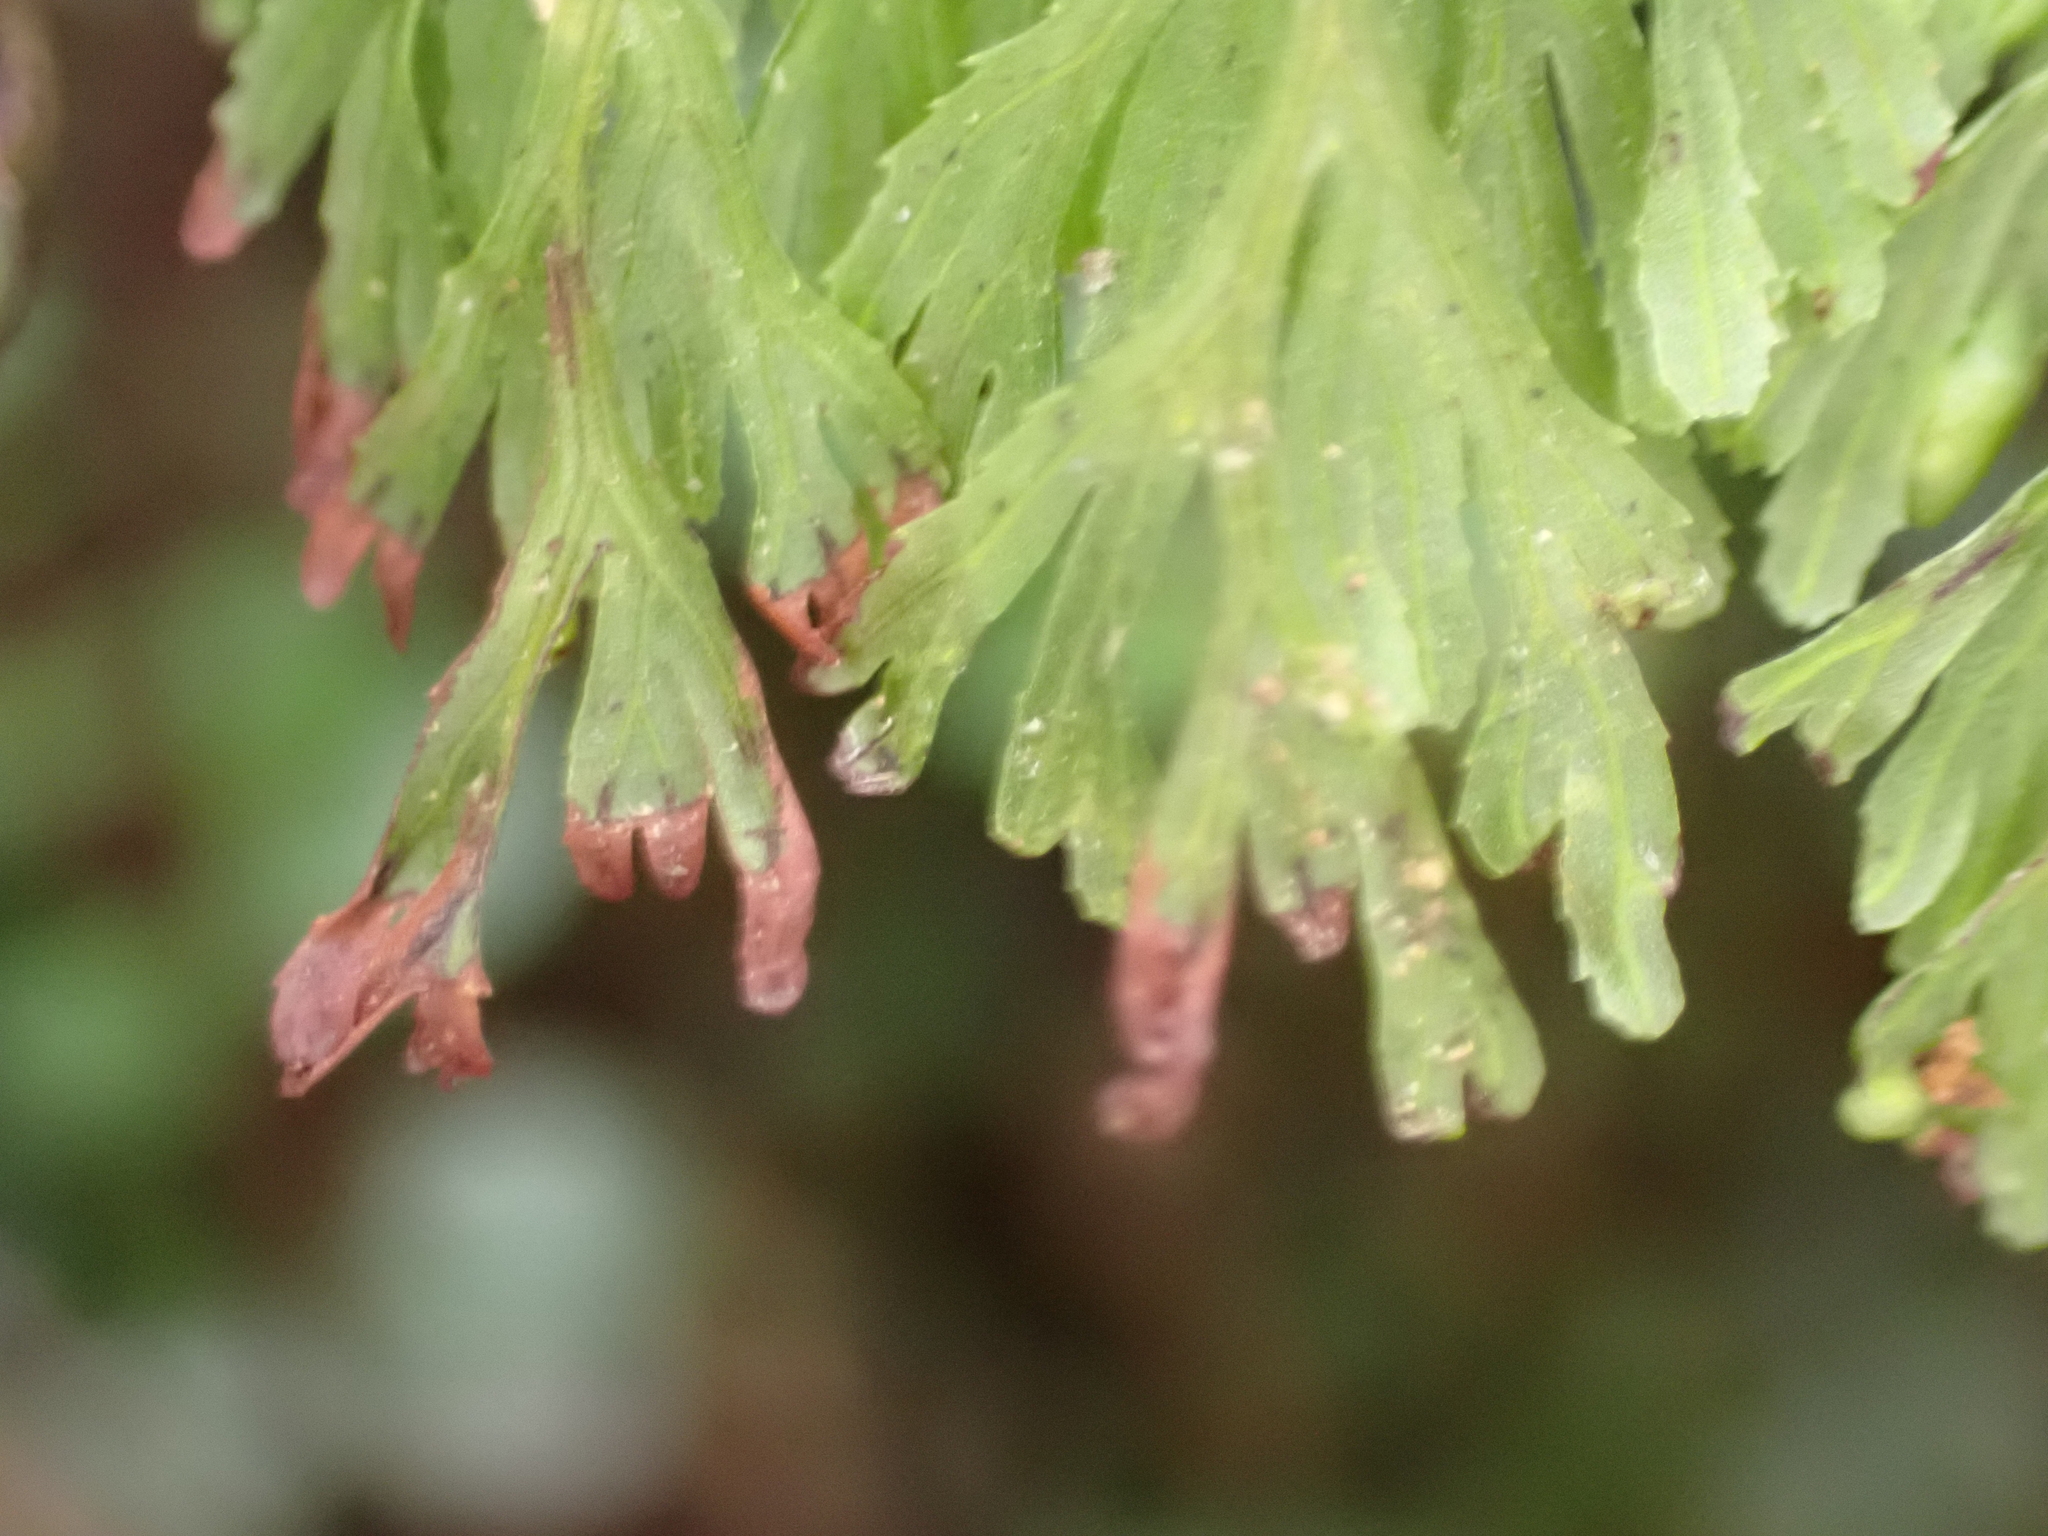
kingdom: Plantae
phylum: Tracheophyta
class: Polypodiopsida
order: Hymenophyllales
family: Hymenophyllaceae
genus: Hymenophyllum
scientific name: Hymenophyllum bivalve
